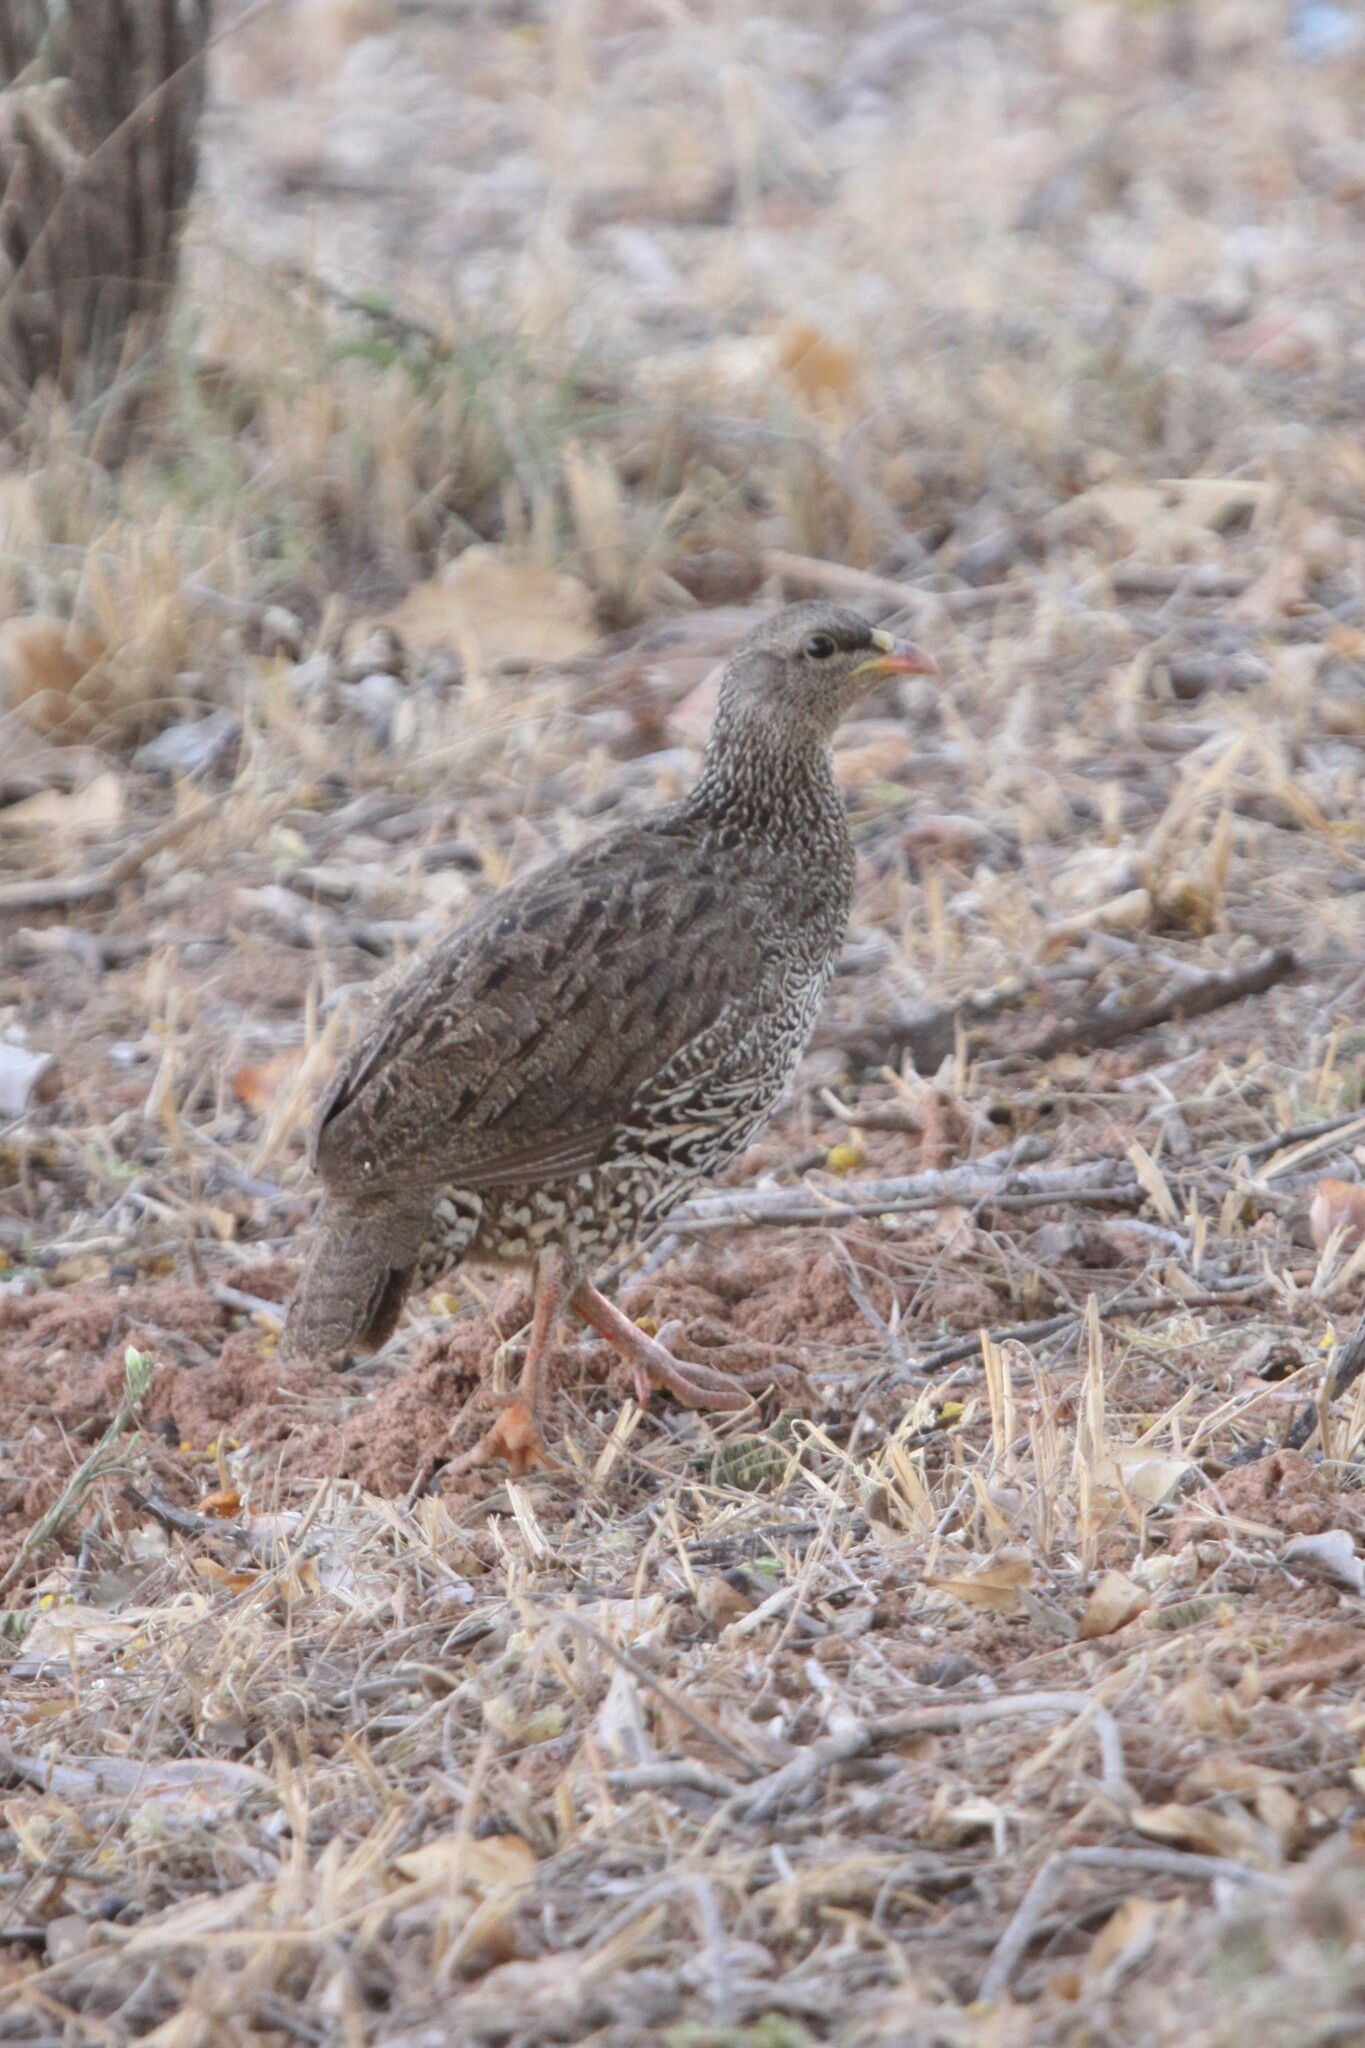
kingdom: Animalia
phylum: Chordata
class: Aves
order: Galliformes
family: Phasianidae
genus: Pternistis
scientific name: Pternistis natalensis
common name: Natal spurfowl
